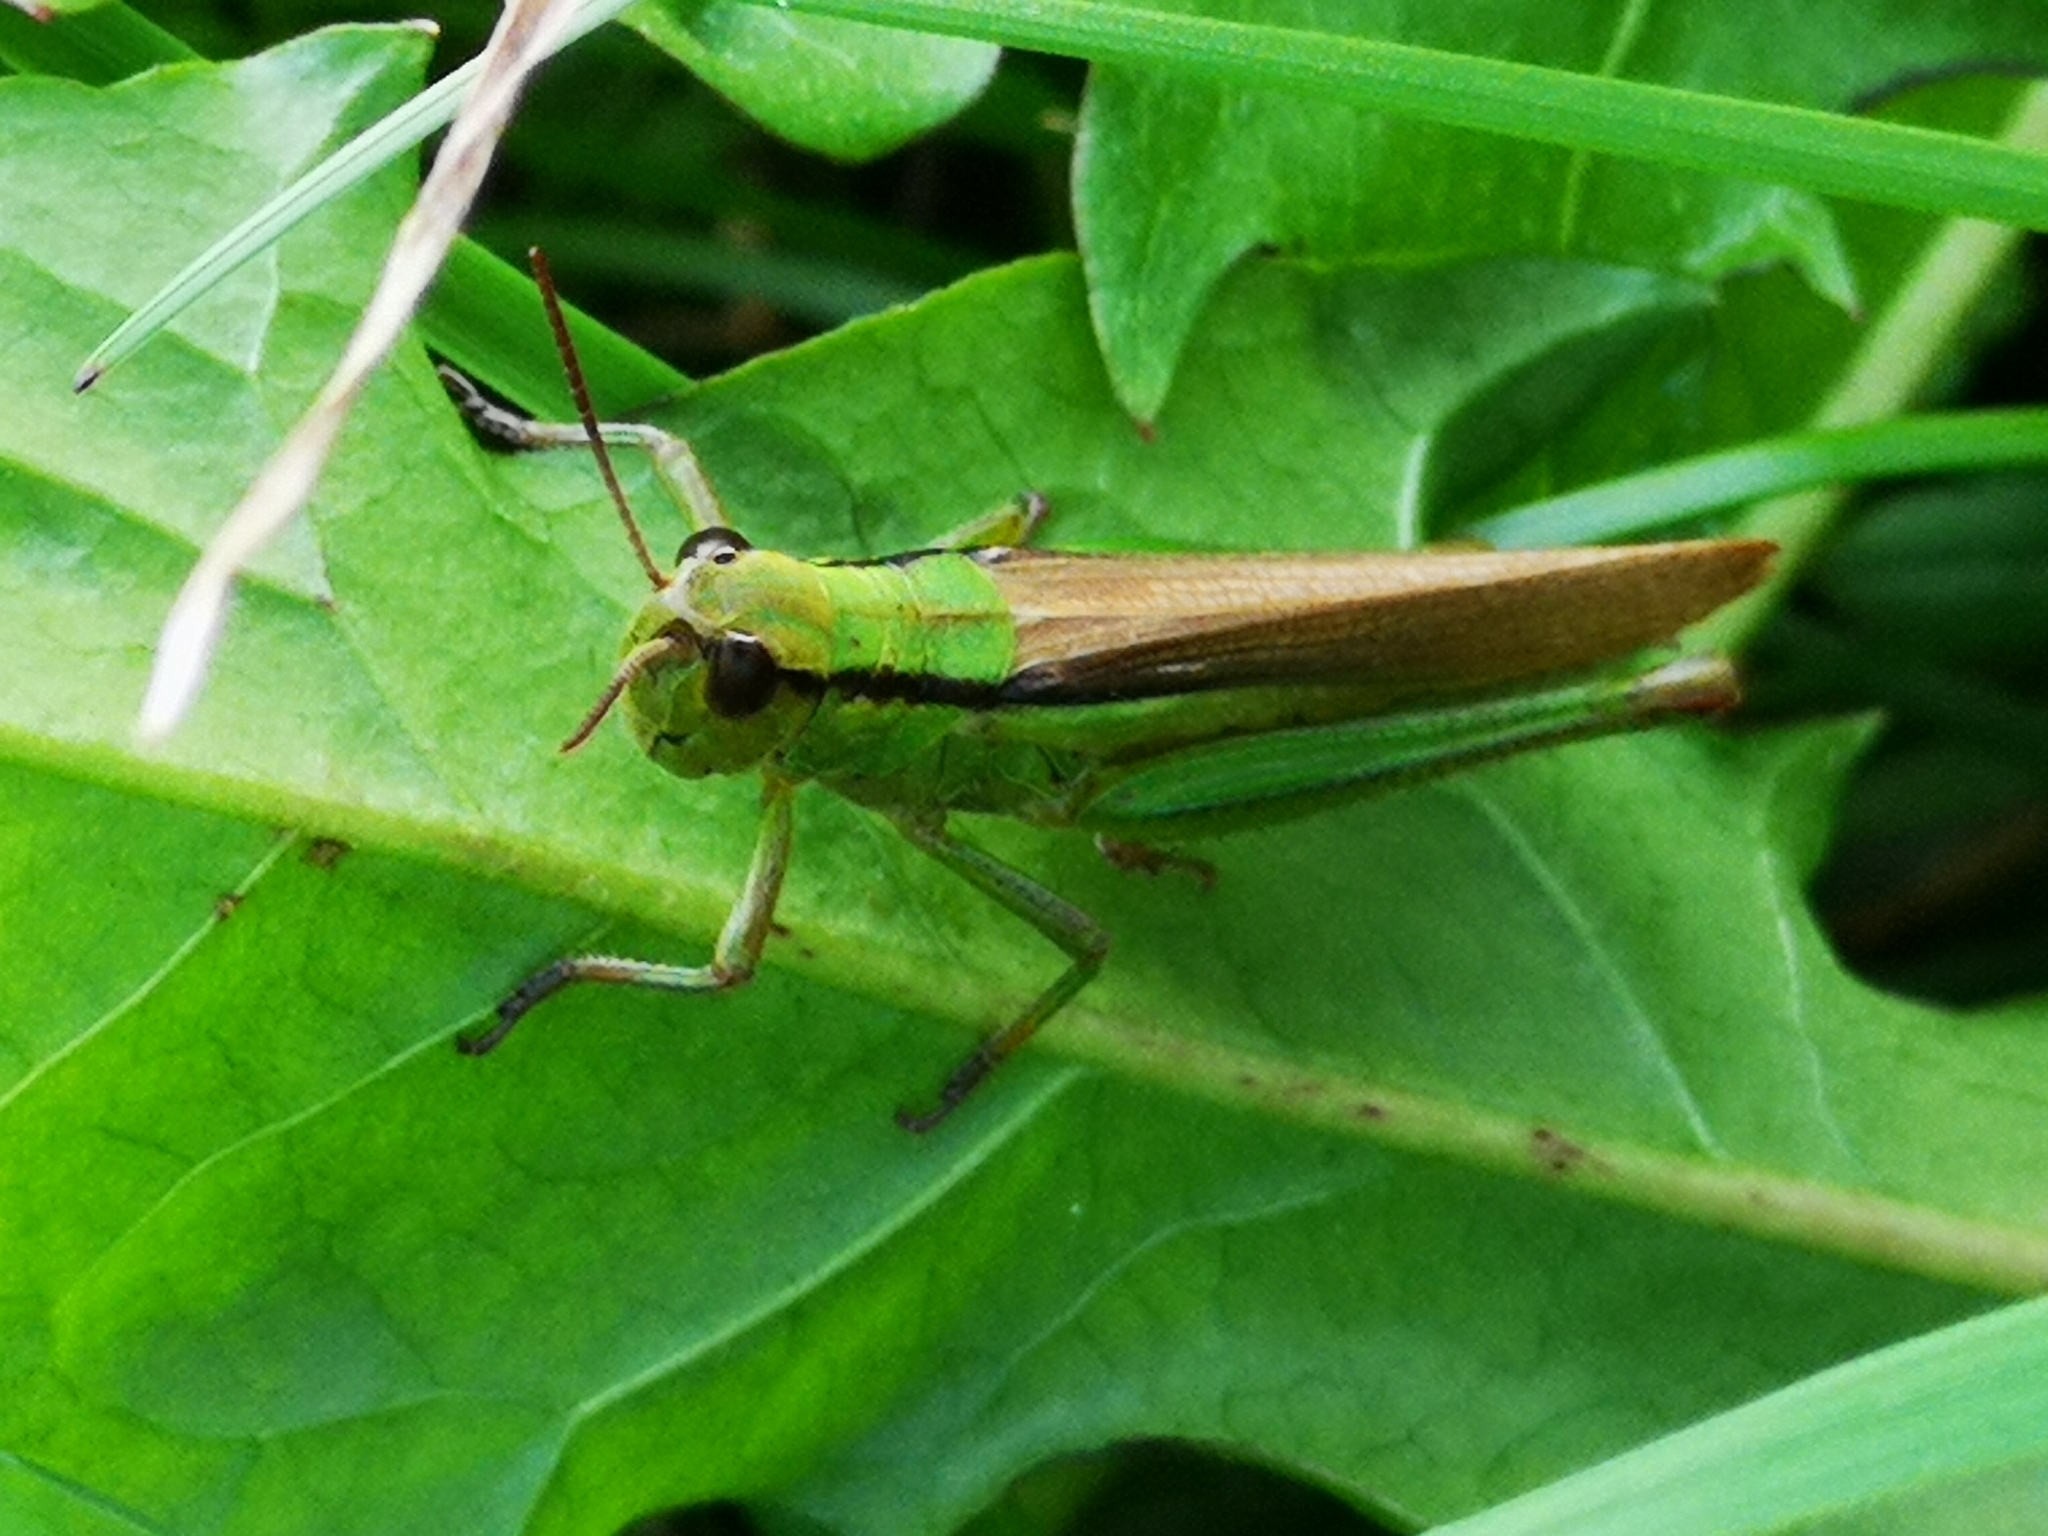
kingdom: Animalia
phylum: Arthropoda
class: Insecta
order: Orthoptera
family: Acrididae
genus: Mecostethus
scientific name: Mecostethus parapleurus
